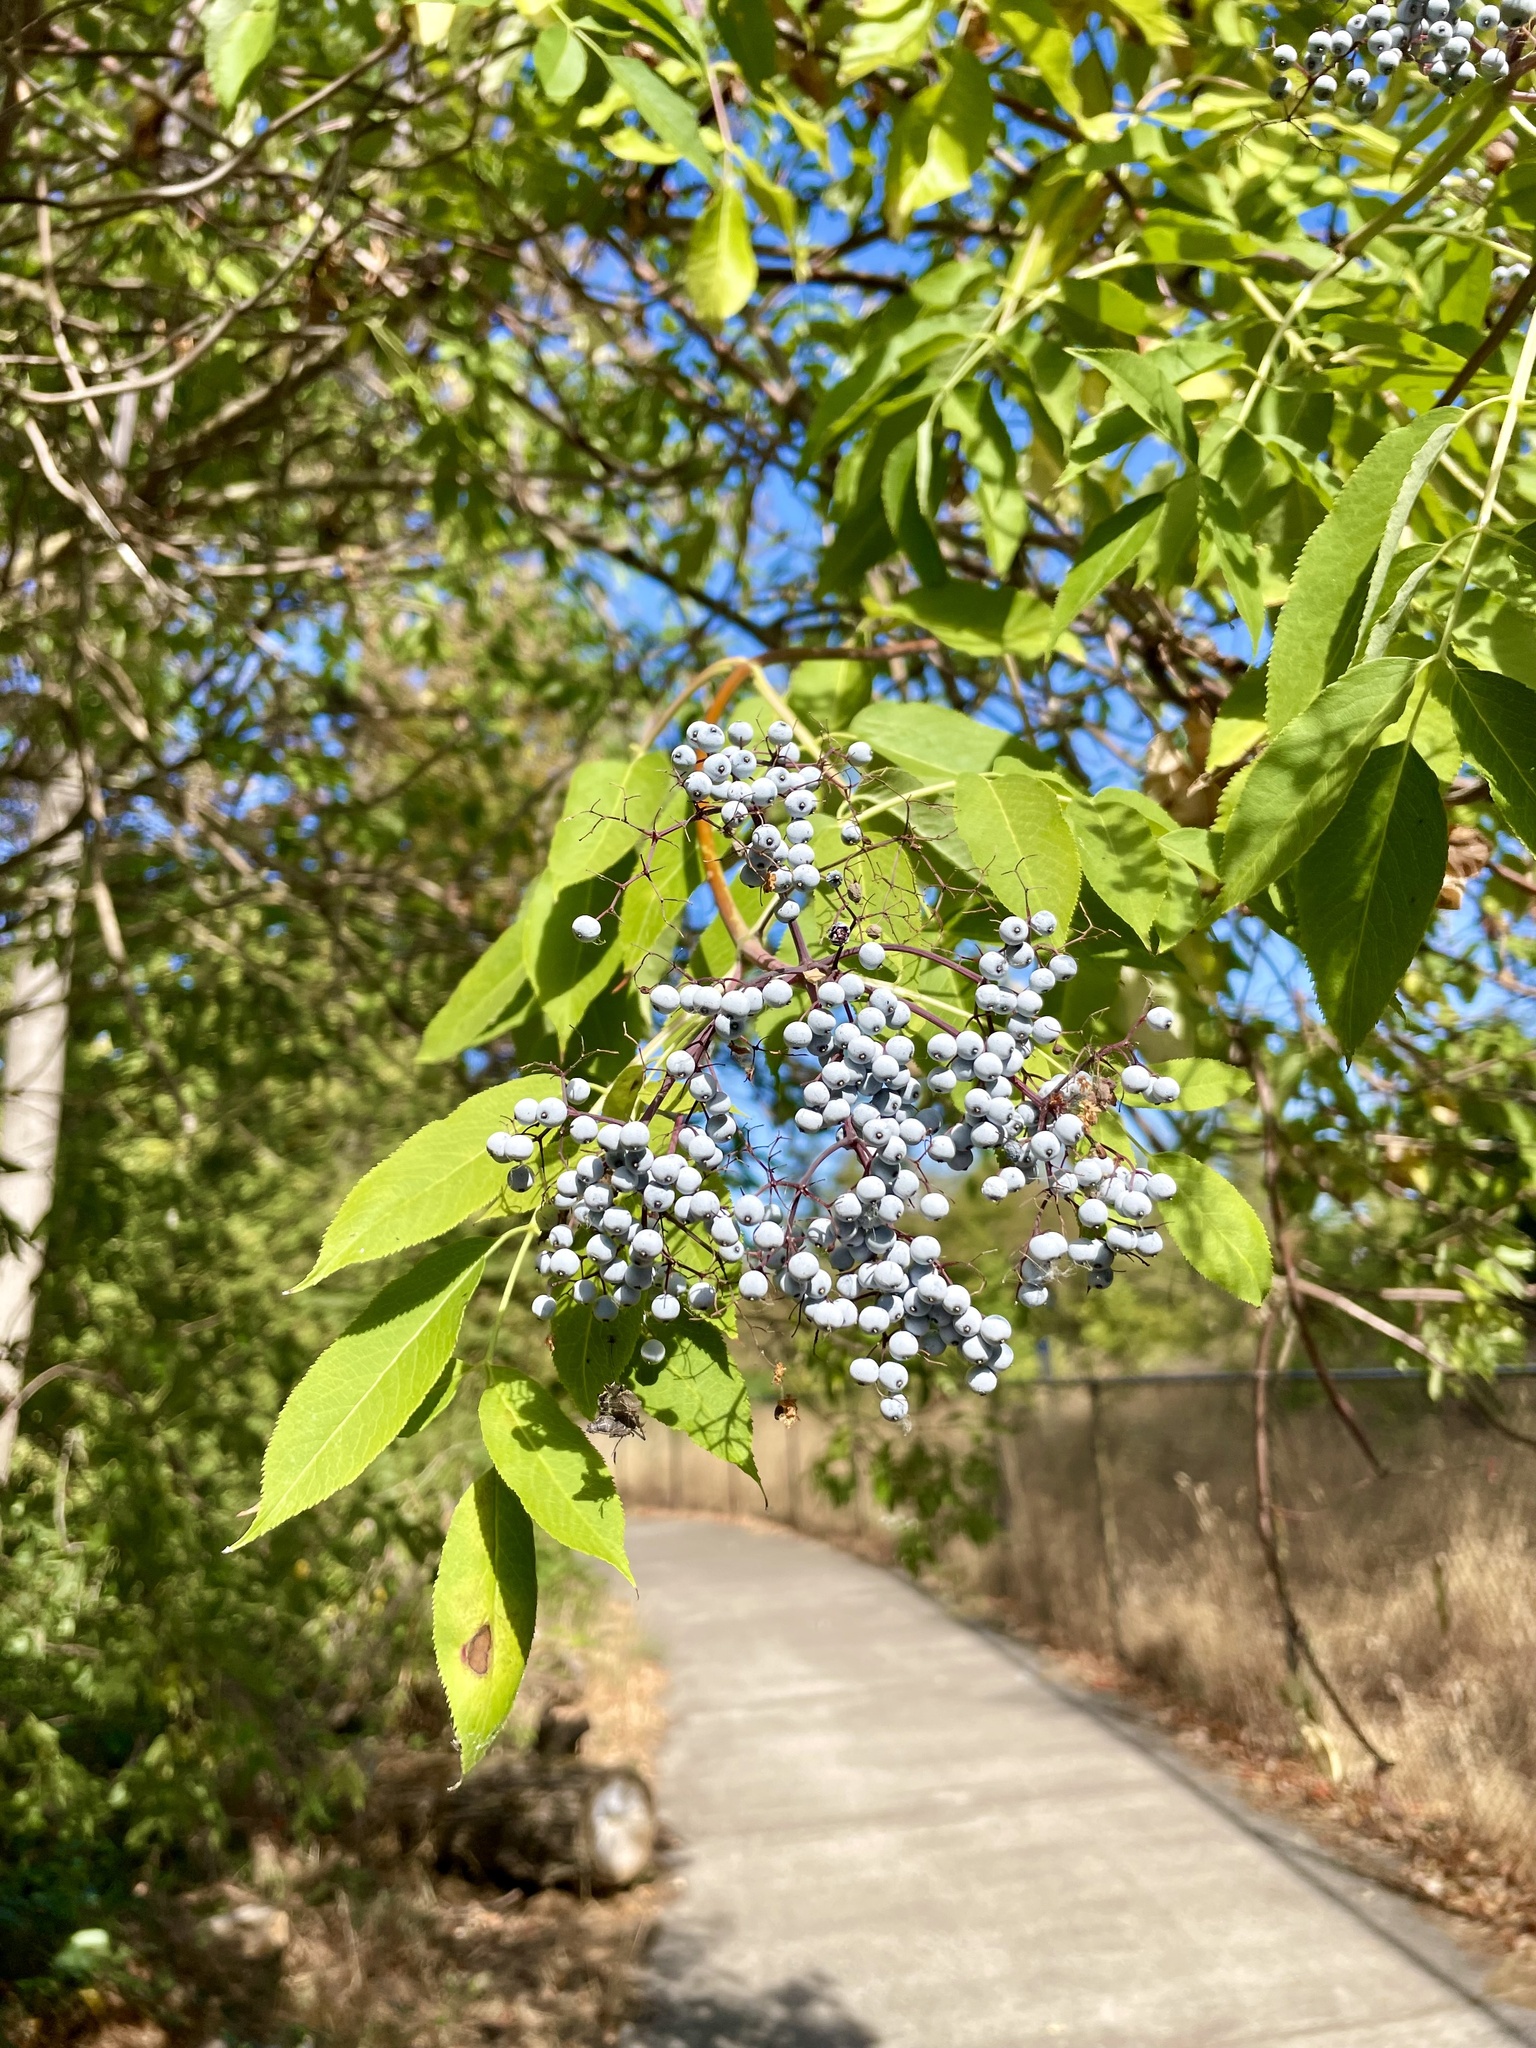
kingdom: Plantae
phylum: Tracheophyta
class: Magnoliopsida
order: Dipsacales
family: Viburnaceae
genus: Sambucus
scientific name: Sambucus cerulea
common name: Blue elder
